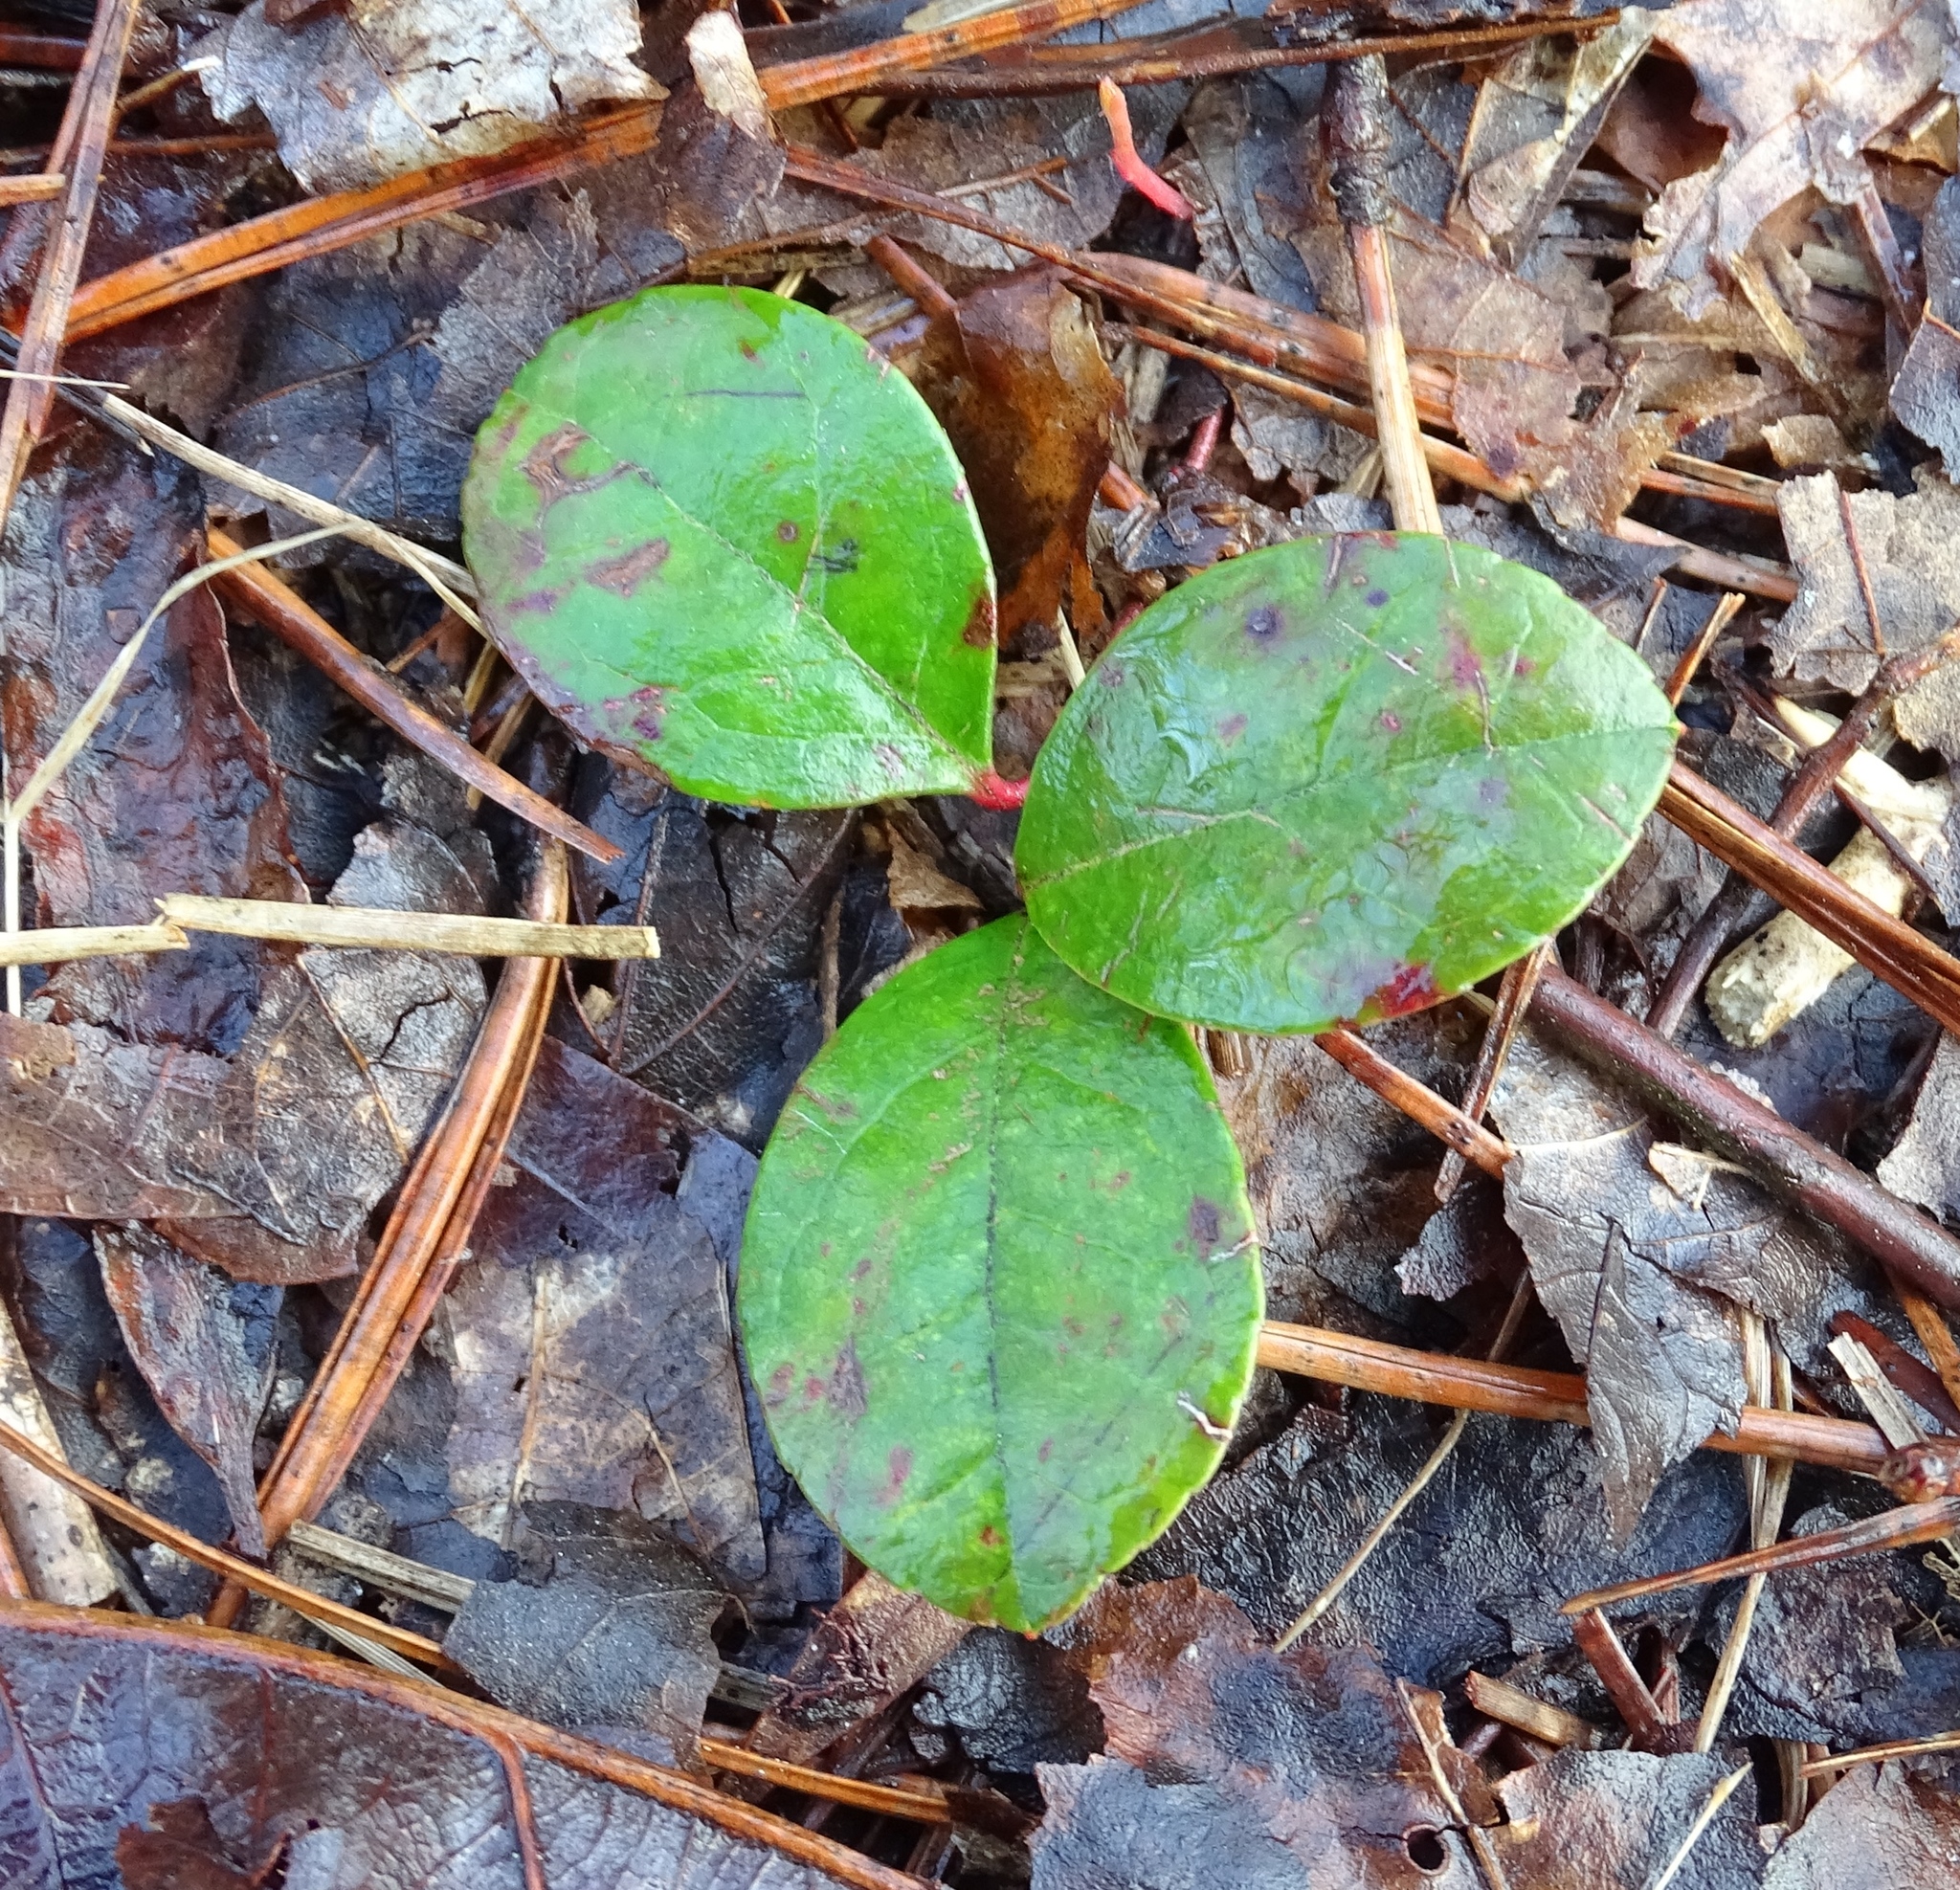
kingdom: Plantae
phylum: Tracheophyta
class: Magnoliopsida
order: Ericales
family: Ericaceae
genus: Gaultheria
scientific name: Gaultheria procumbens
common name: Checkerberry
